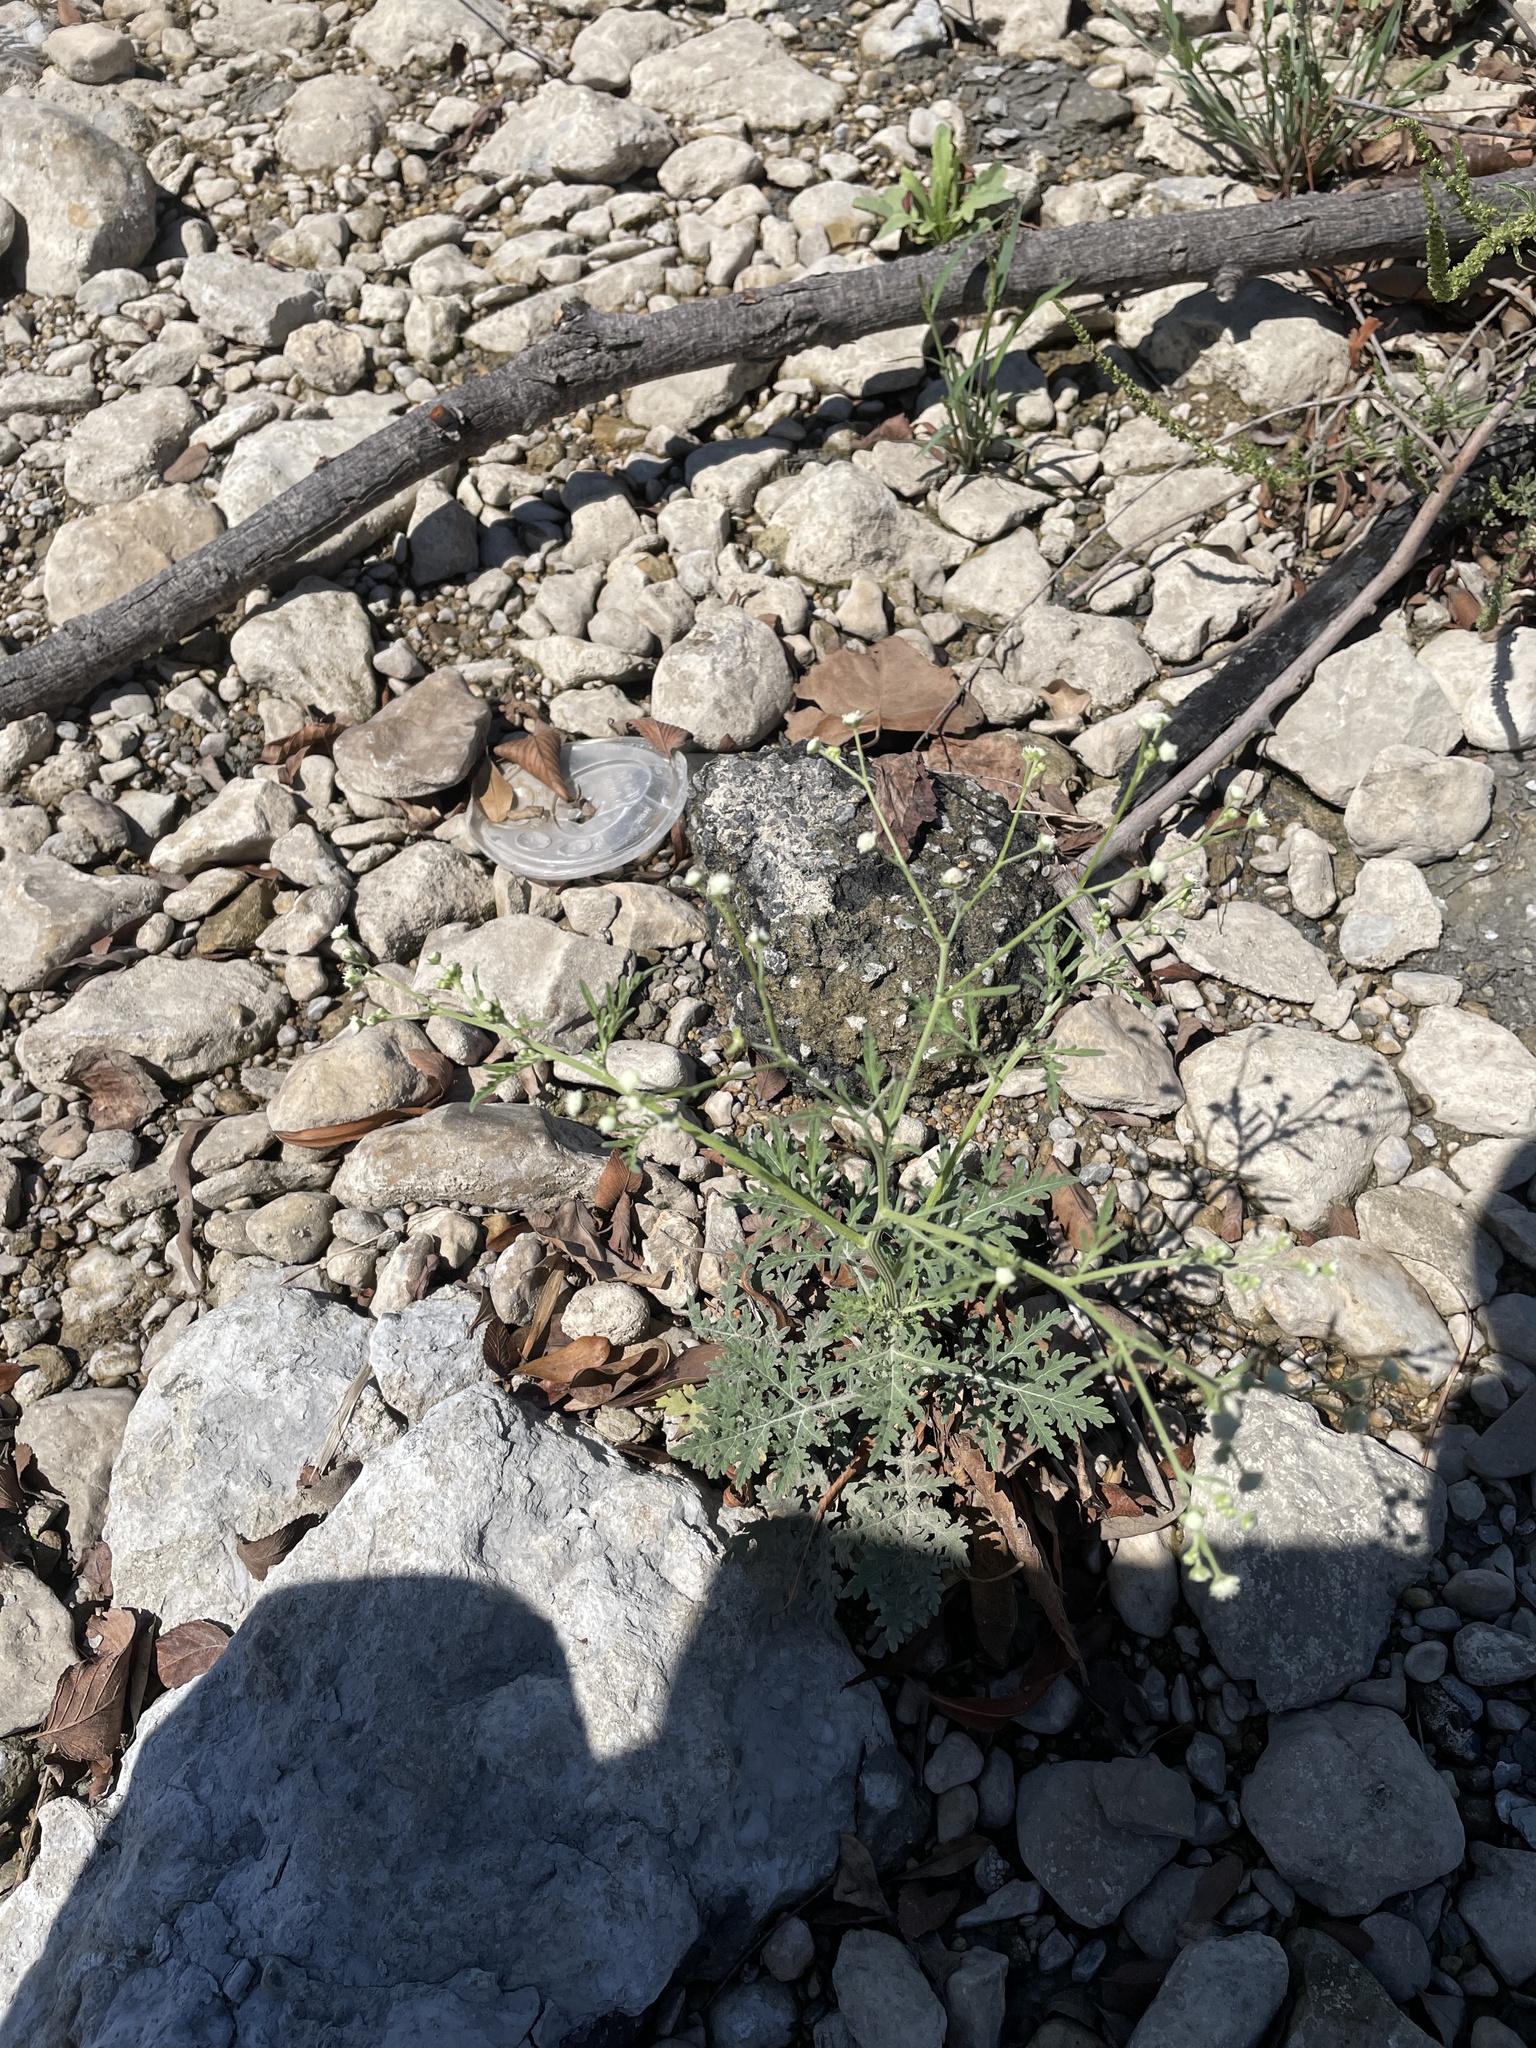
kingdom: Plantae
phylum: Tracheophyta
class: Magnoliopsida
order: Asterales
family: Asteraceae
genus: Parthenium
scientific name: Parthenium hysterophorus
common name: Santa maria feverfew
